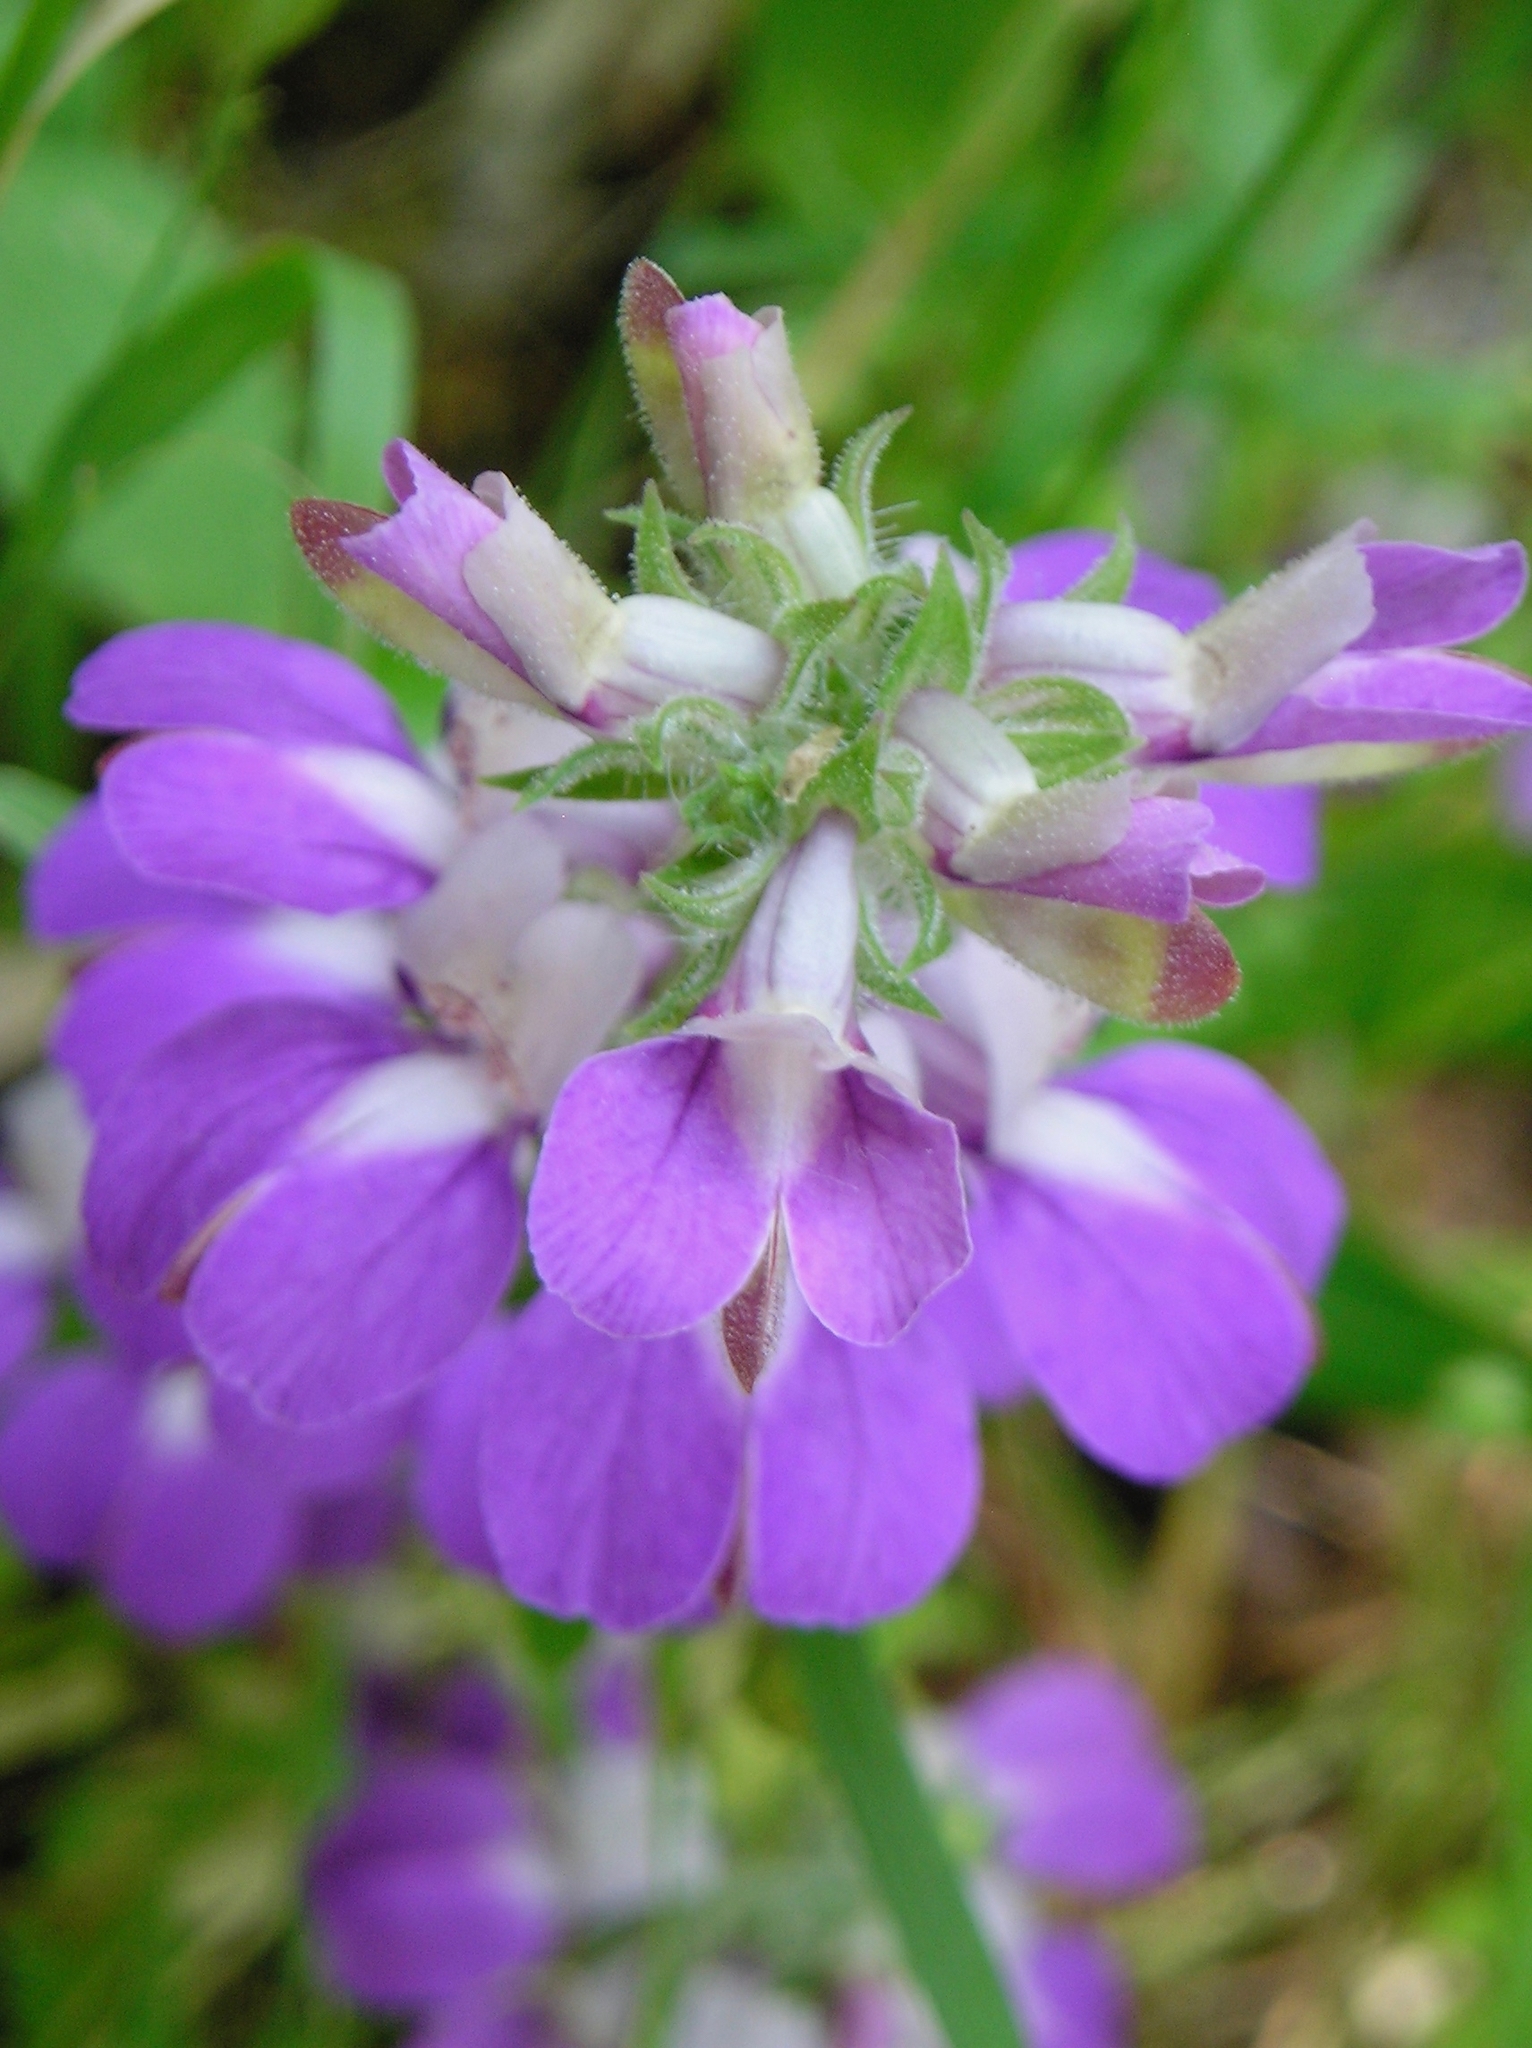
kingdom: Plantae
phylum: Tracheophyta
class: Magnoliopsida
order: Lamiales
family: Plantaginaceae
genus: Collinsia
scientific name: Collinsia heterophylla
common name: Chinese-houses
